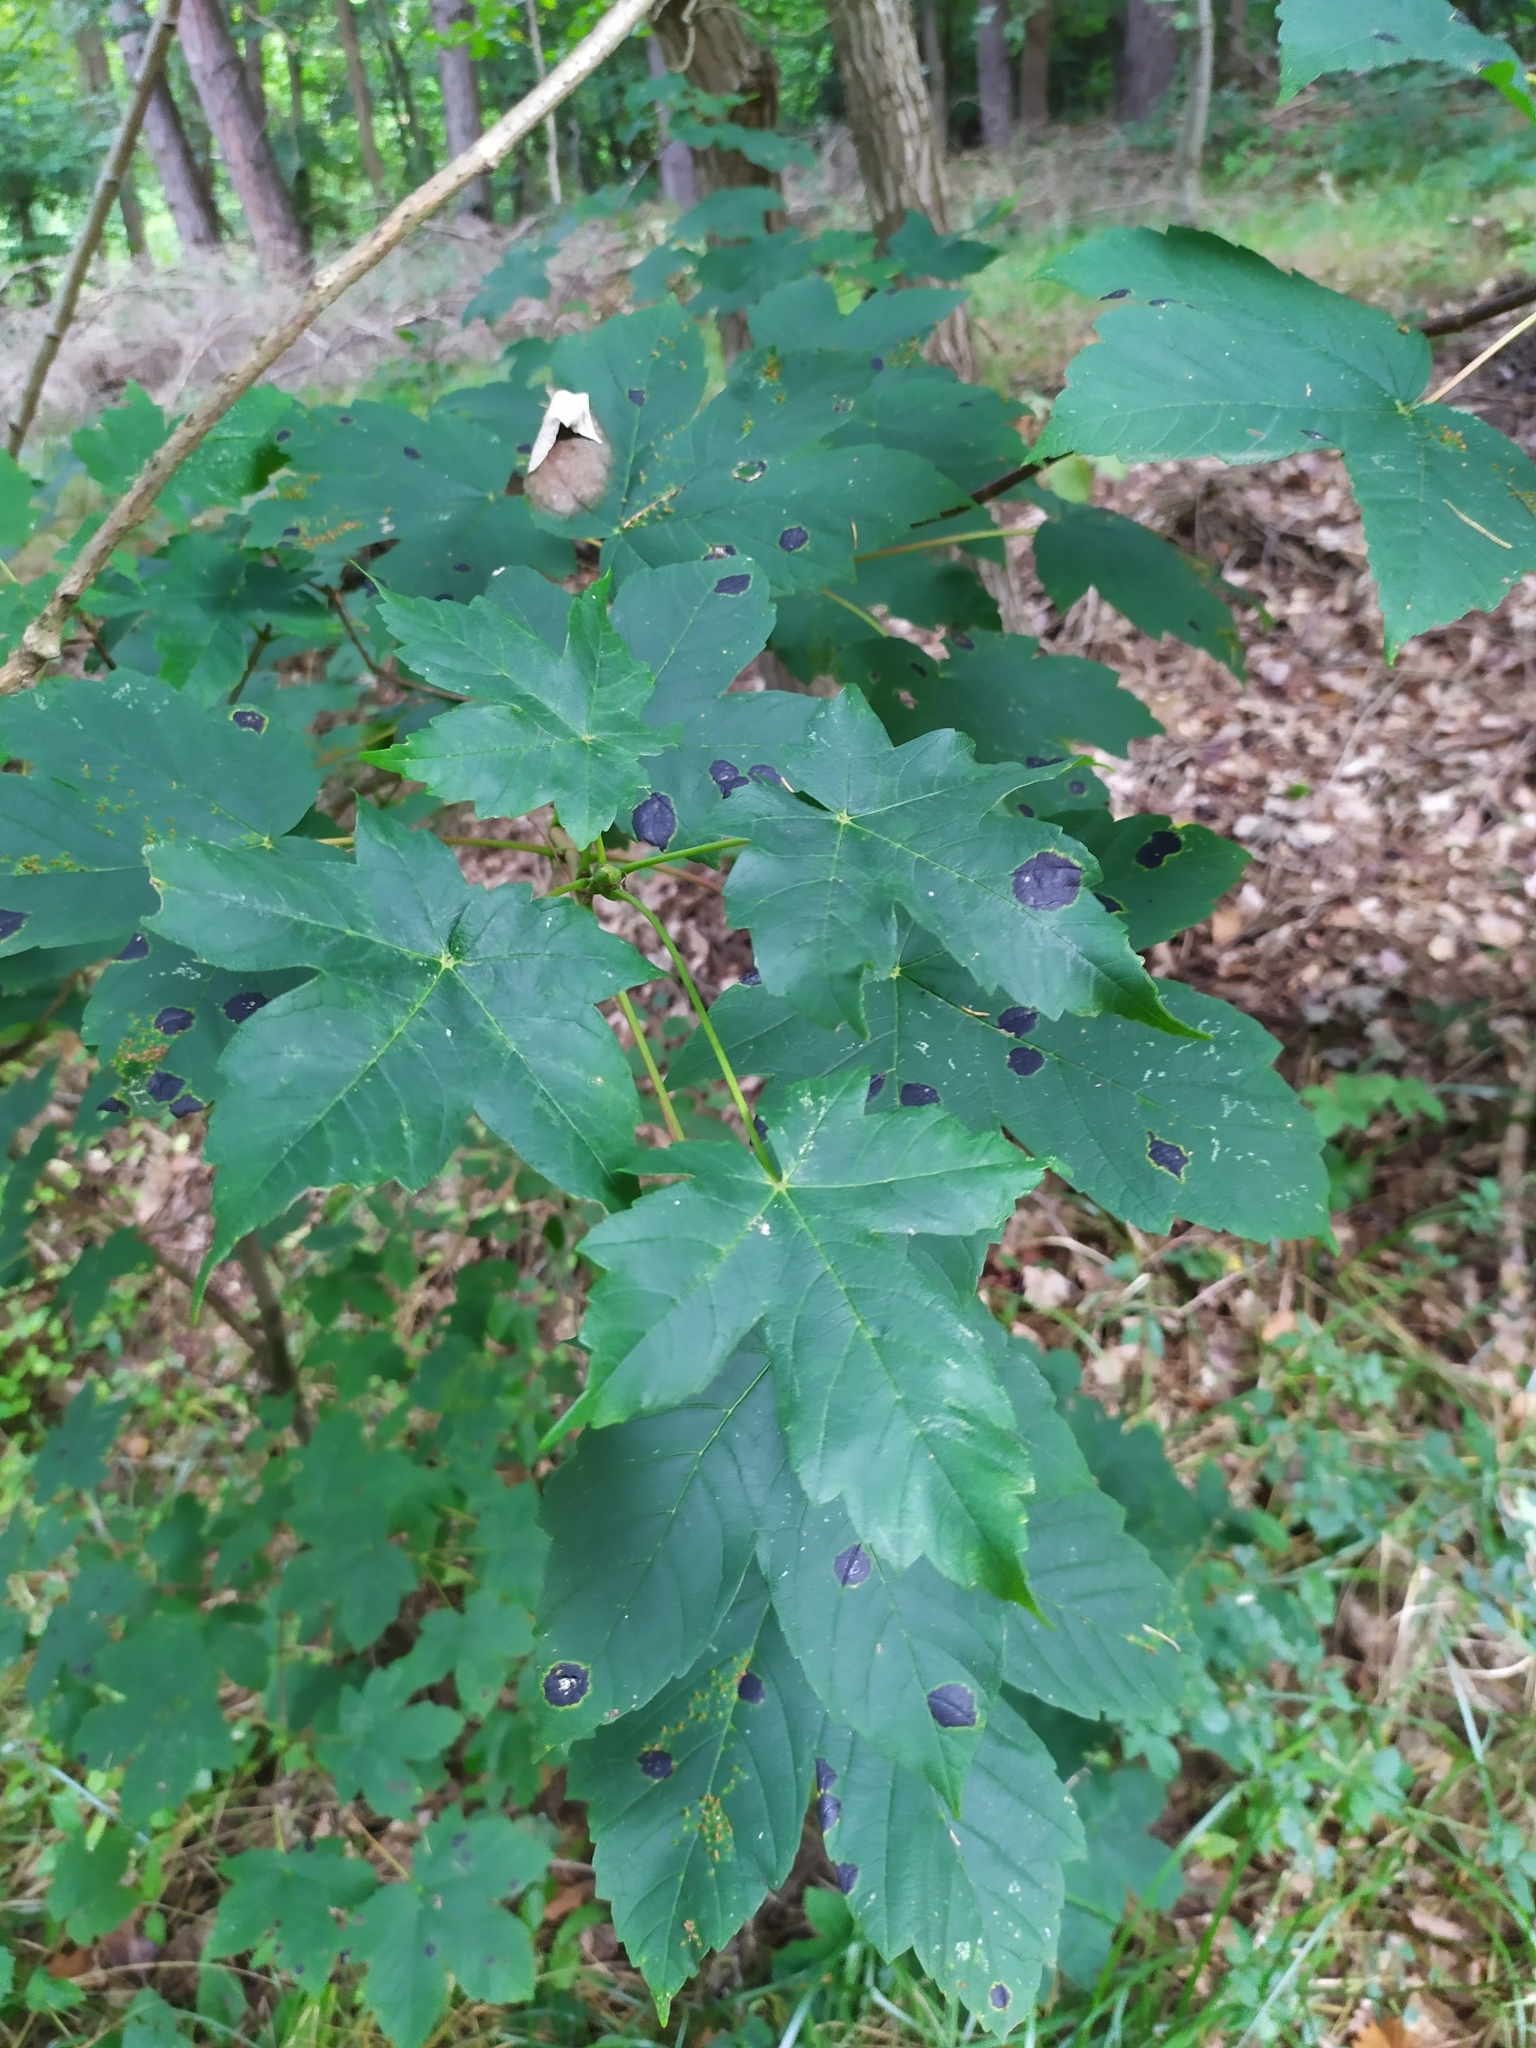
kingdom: Fungi
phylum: Ascomycota
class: Leotiomycetes
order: Rhytismatales
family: Rhytismataceae
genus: Rhytisma
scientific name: Rhytisma acerinum
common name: European tar spot
